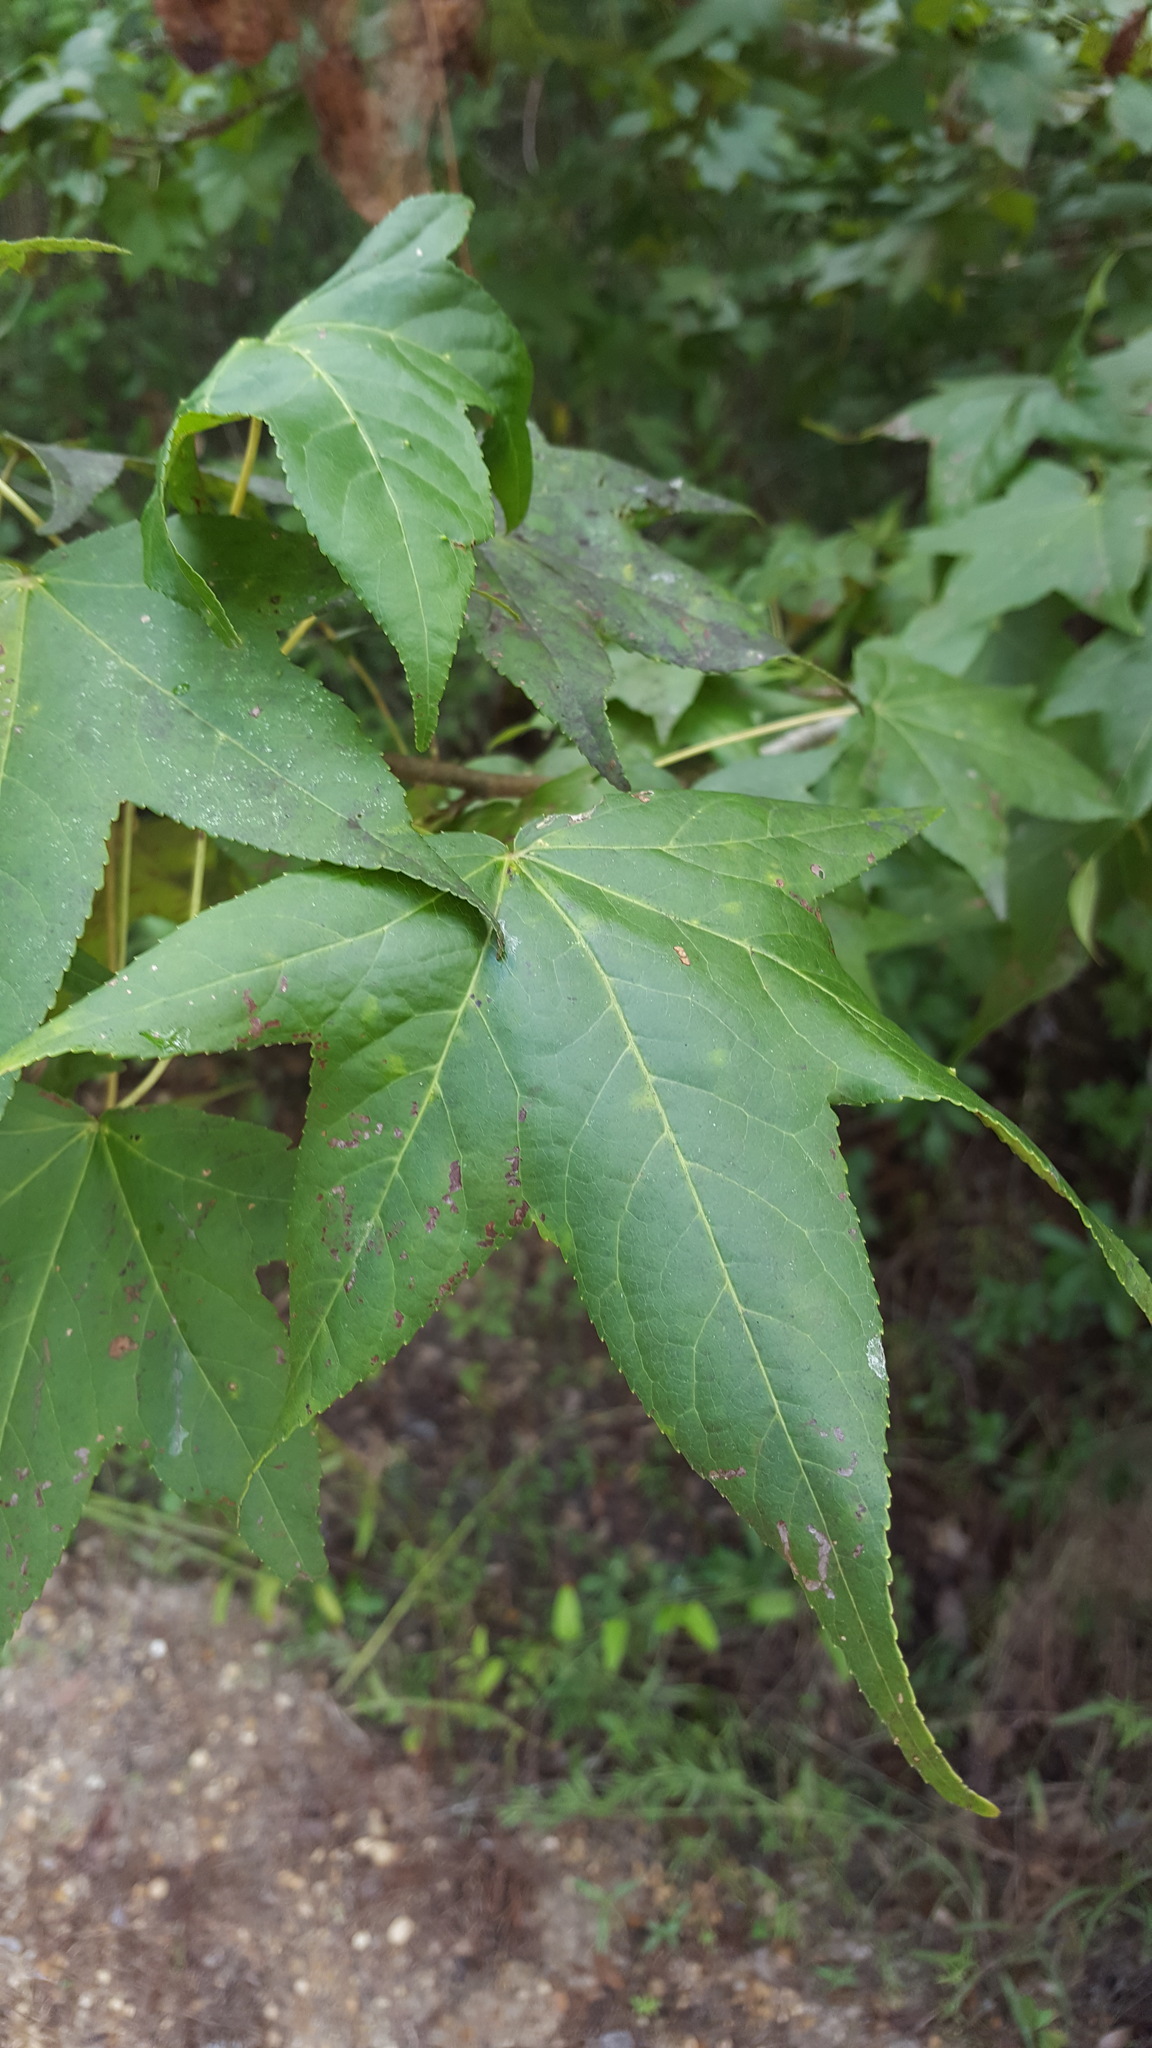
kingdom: Plantae
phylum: Tracheophyta
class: Magnoliopsida
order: Saxifragales
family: Altingiaceae
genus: Liquidambar
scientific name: Liquidambar styraciflua
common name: Sweet gum
